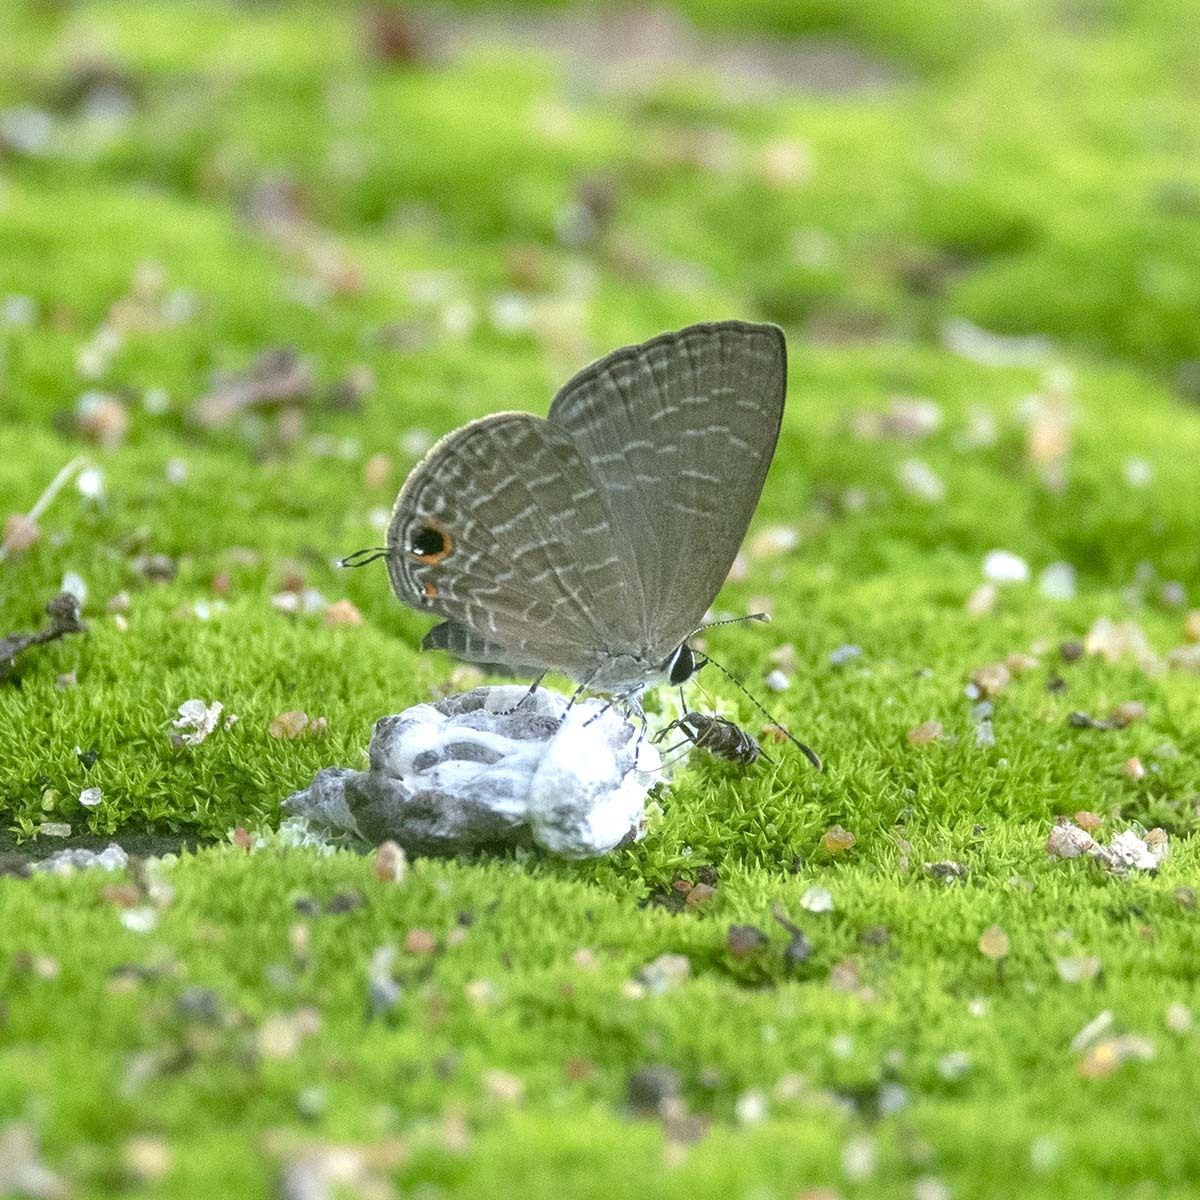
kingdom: Animalia
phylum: Arthropoda
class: Insecta
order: Lepidoptera
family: Lycaenidae
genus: Jamides
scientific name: Jamides bochus
